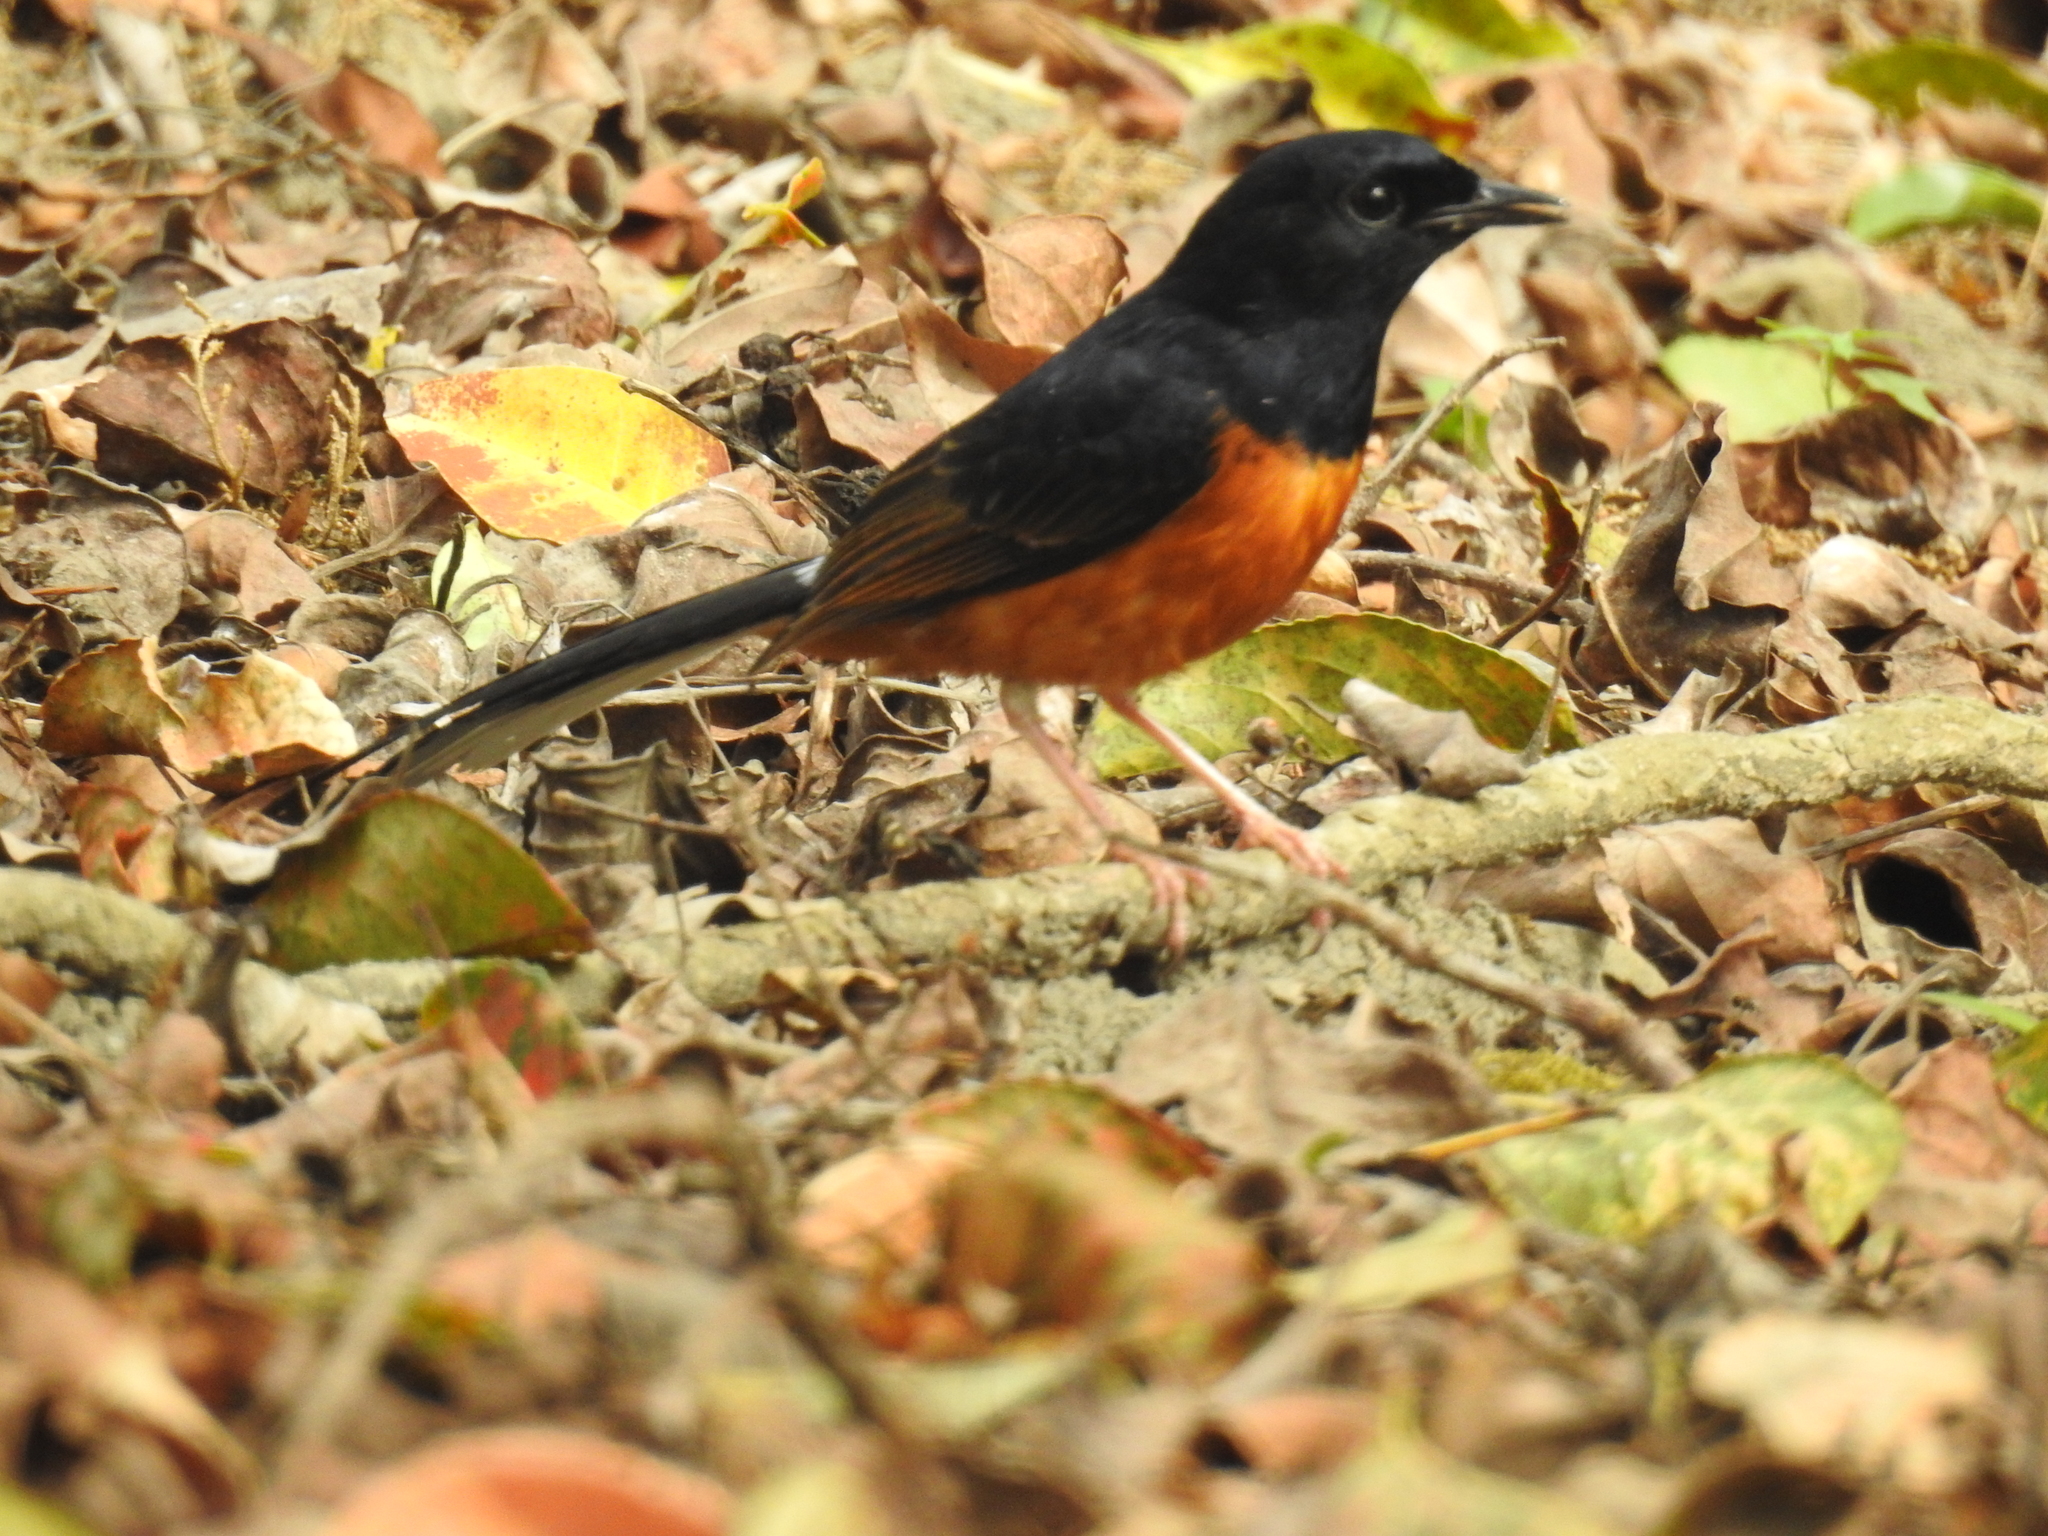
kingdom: Animalia
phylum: Chordata
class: Aves
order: Passeriformes
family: Muscicapidae
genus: Copsychus
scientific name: Copsychus malabaricus
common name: White-rumped shama
